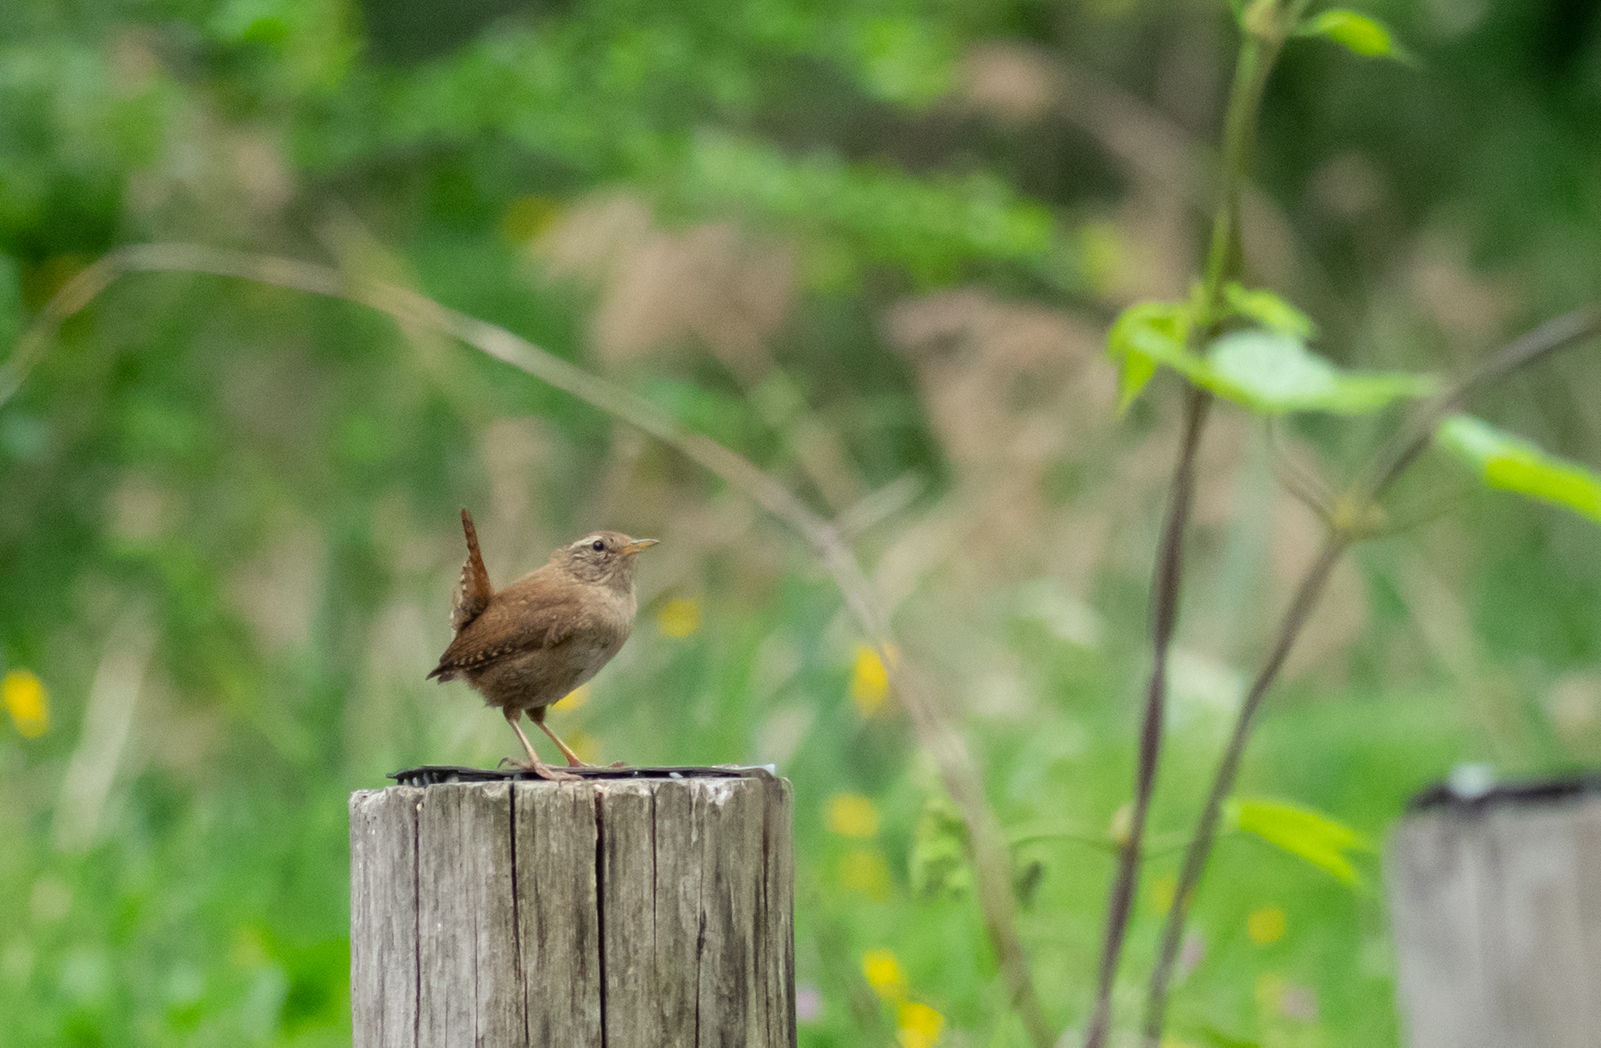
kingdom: Animalia
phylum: Chordata
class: Aves
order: Passeriformes
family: Troglodytidae
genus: Troglodytes
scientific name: Troglodytes troglodytes
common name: Eurasian wren
